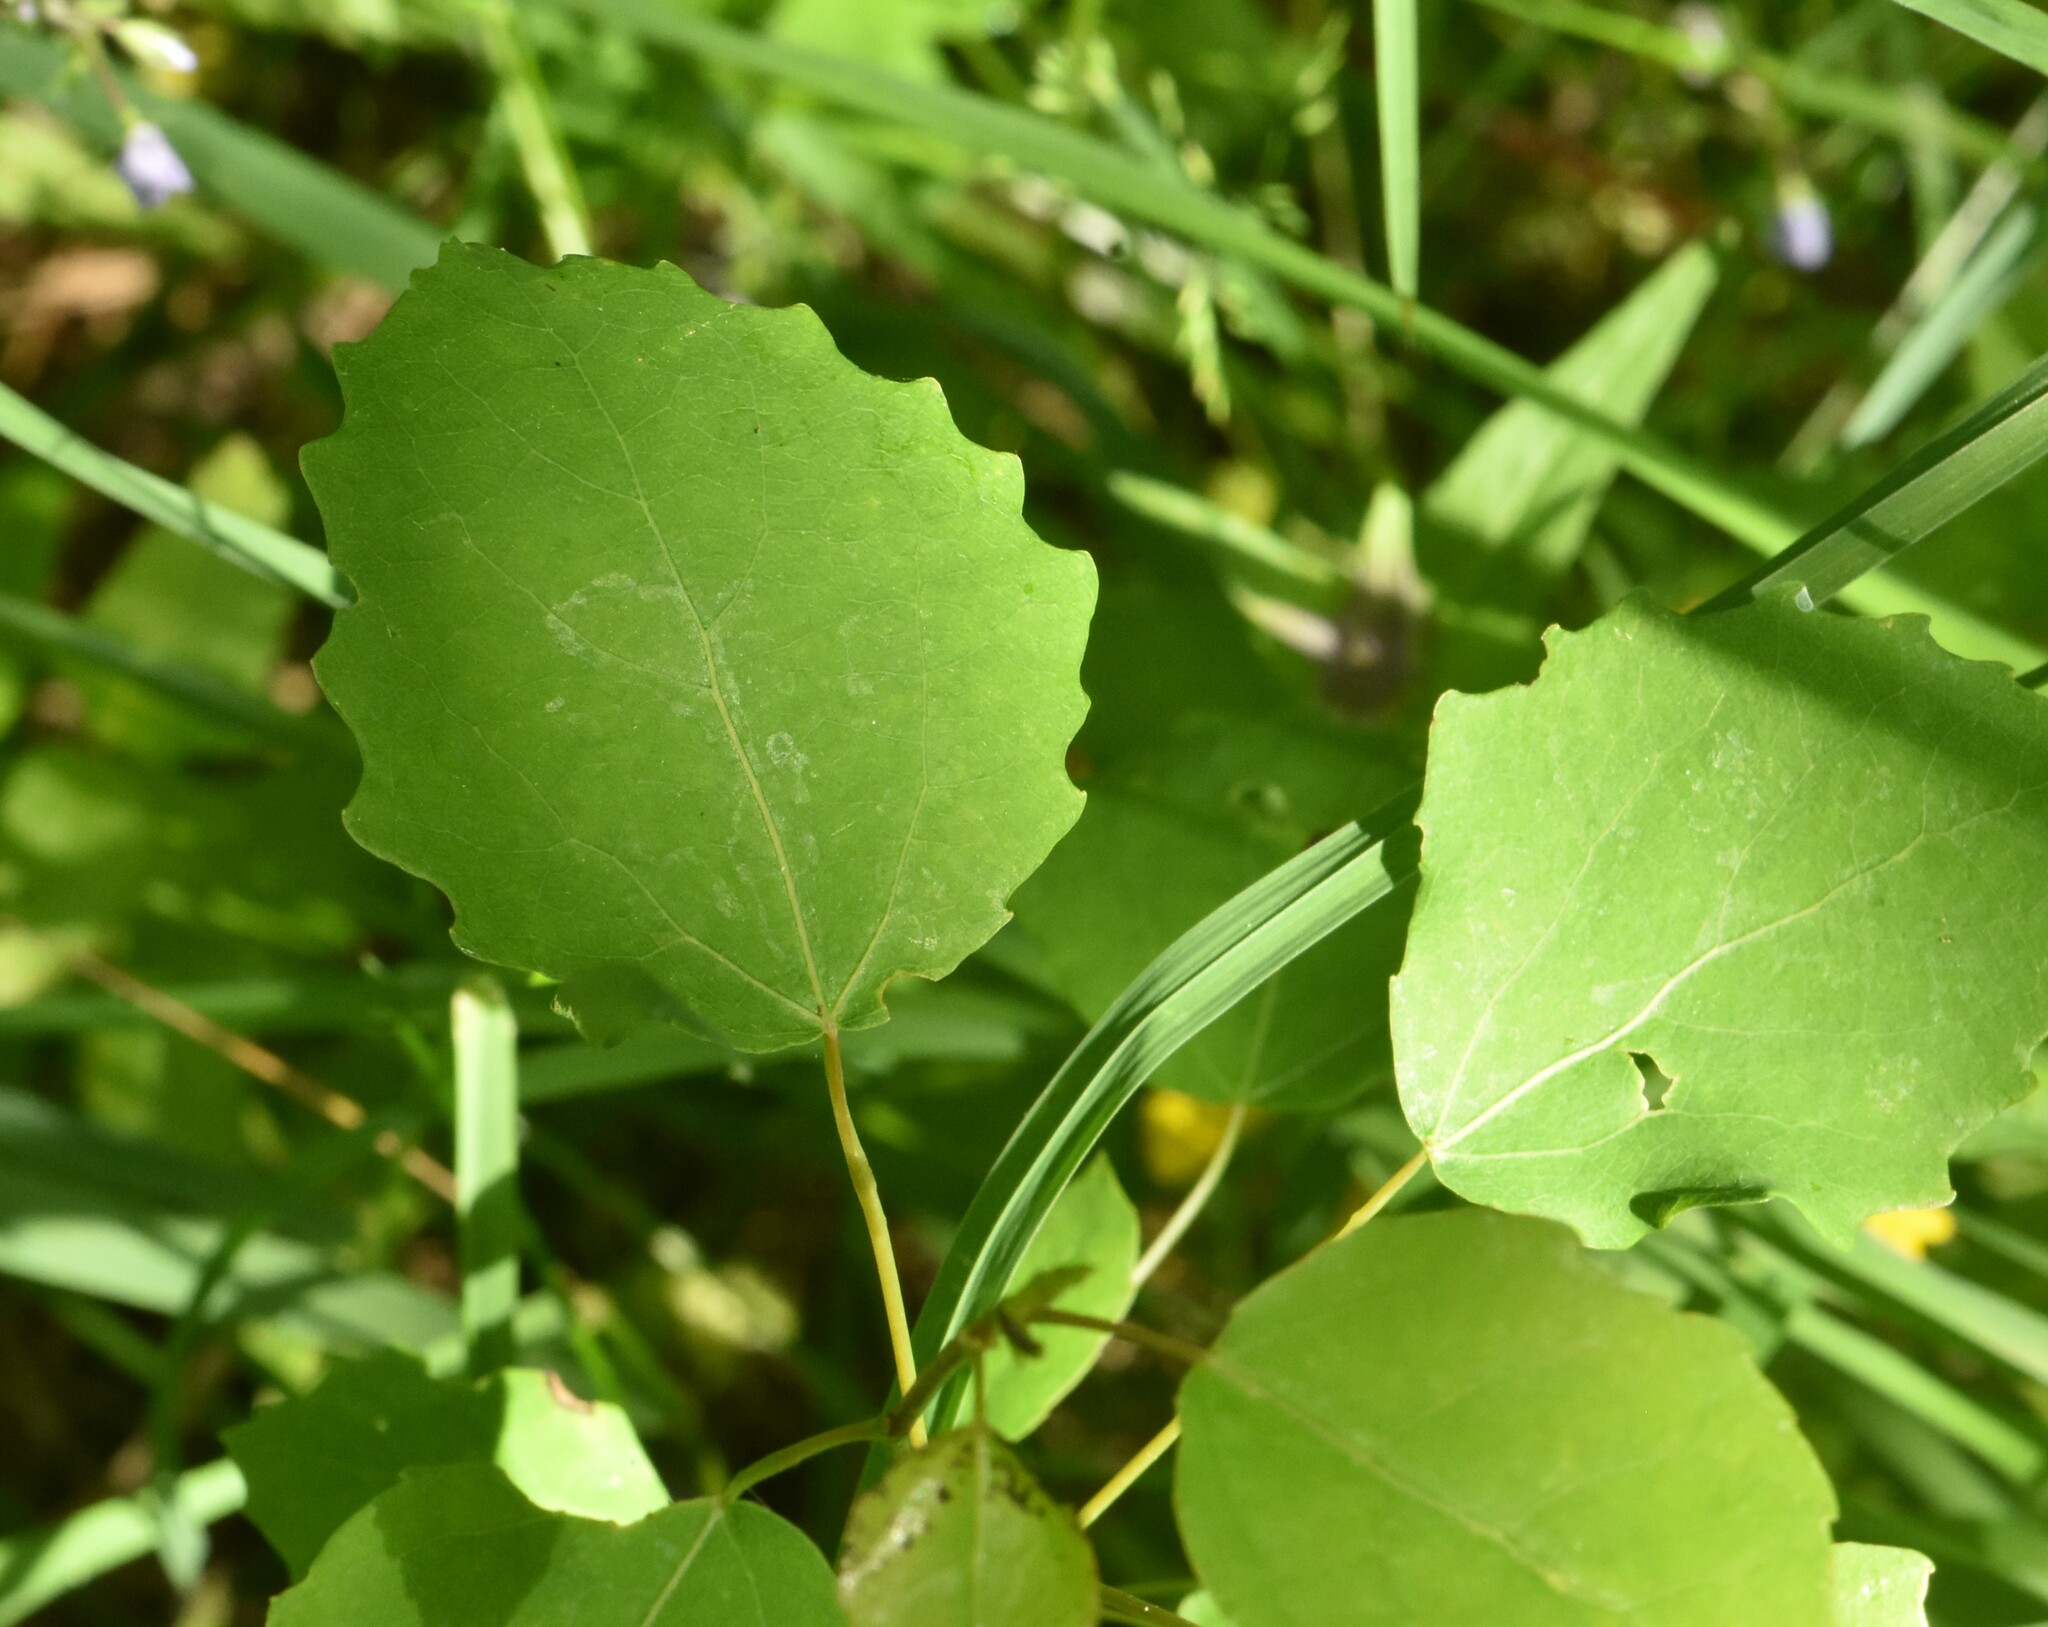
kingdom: Plantae
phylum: Tracheophyta
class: Magnoliopsida
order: Malpighiales
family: Salicaceae
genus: Populus
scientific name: Populus tremula
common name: European aspen
